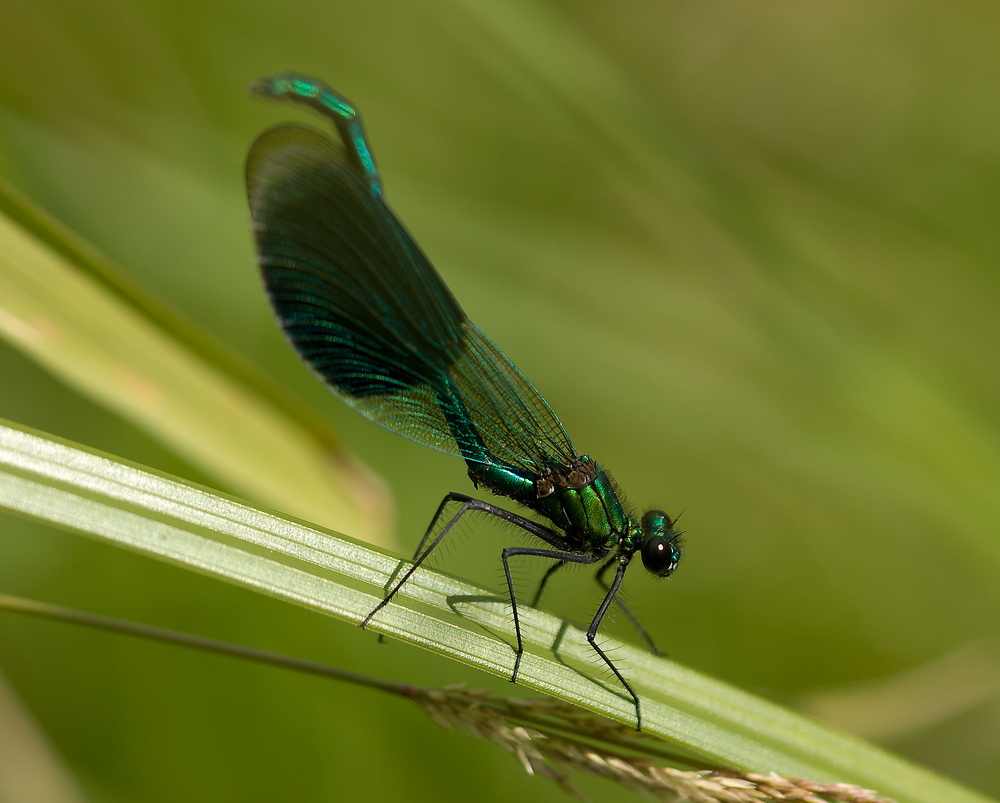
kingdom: Animalia
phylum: Arthropoda
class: Insecta
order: Odonata
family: Calopterygidae
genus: Calopteryx
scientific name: Calopteryx splendens
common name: Banded demoiselle
